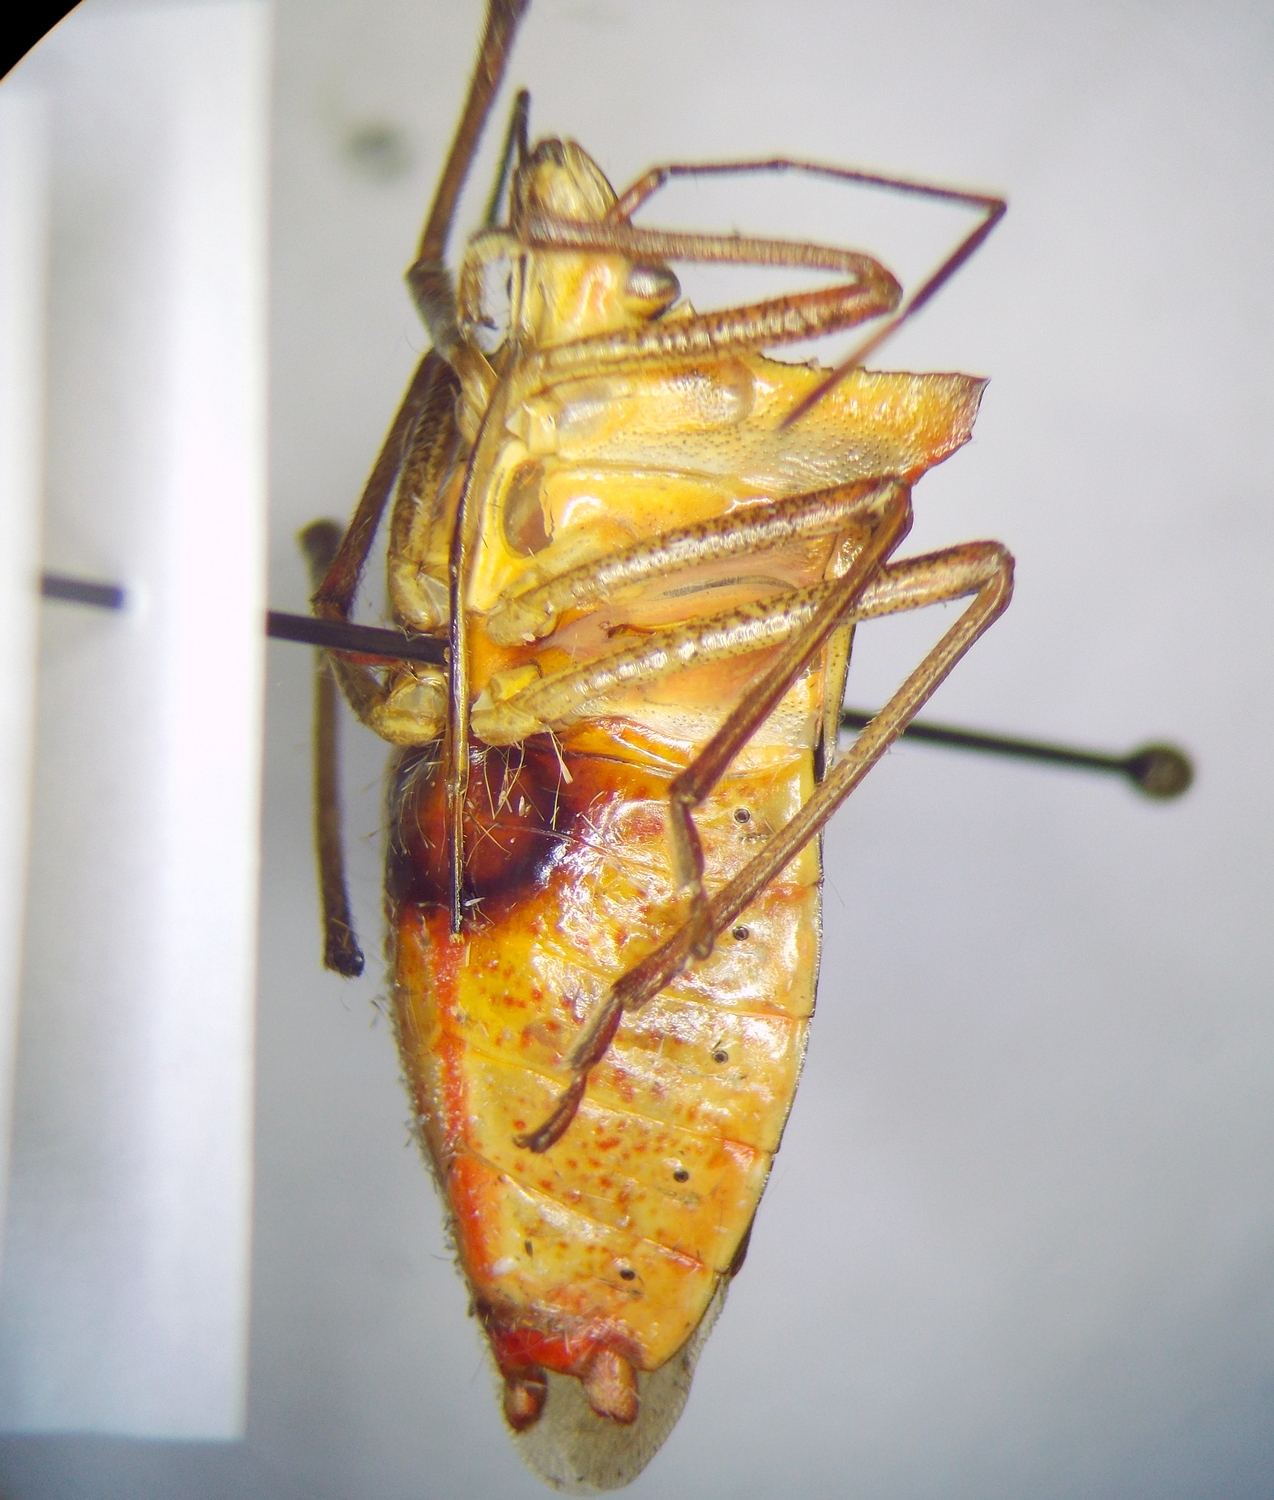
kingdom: Animalia
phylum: Arthropoda
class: Insecta
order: Hemiptera
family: Pentatomidae
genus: Pentatoma
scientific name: Pentatoma japonica
